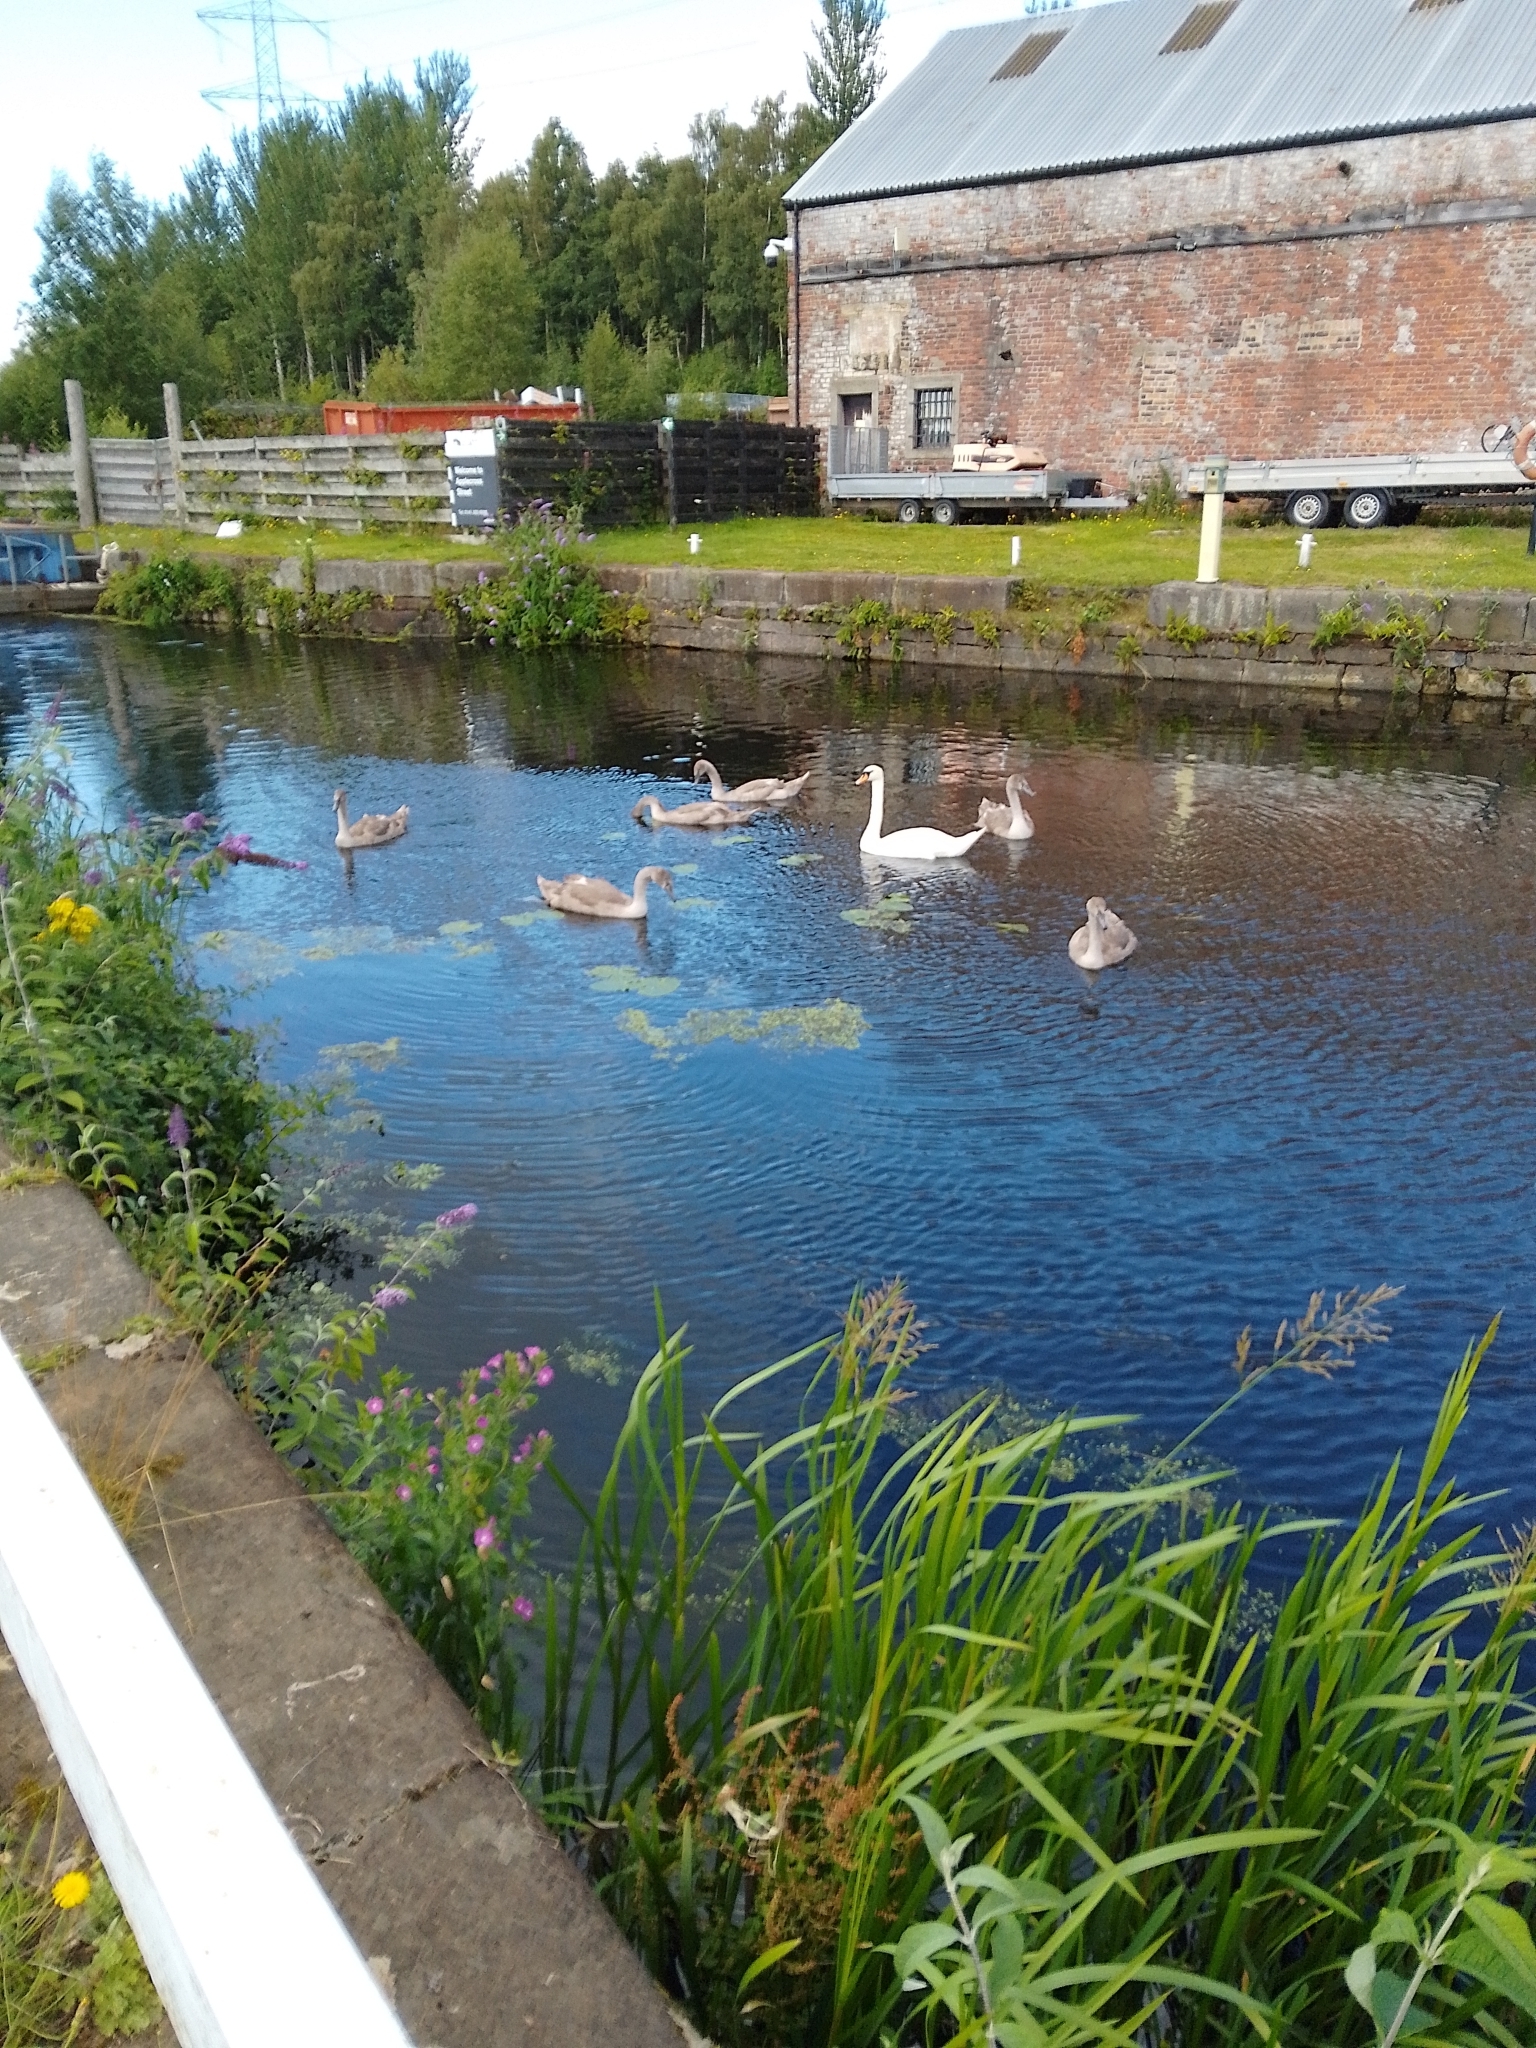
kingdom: Animalia
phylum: Chordata
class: Aves
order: Anseriformes
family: Anatidae
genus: Cygnus
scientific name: Cygnus olor
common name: Mute swan
